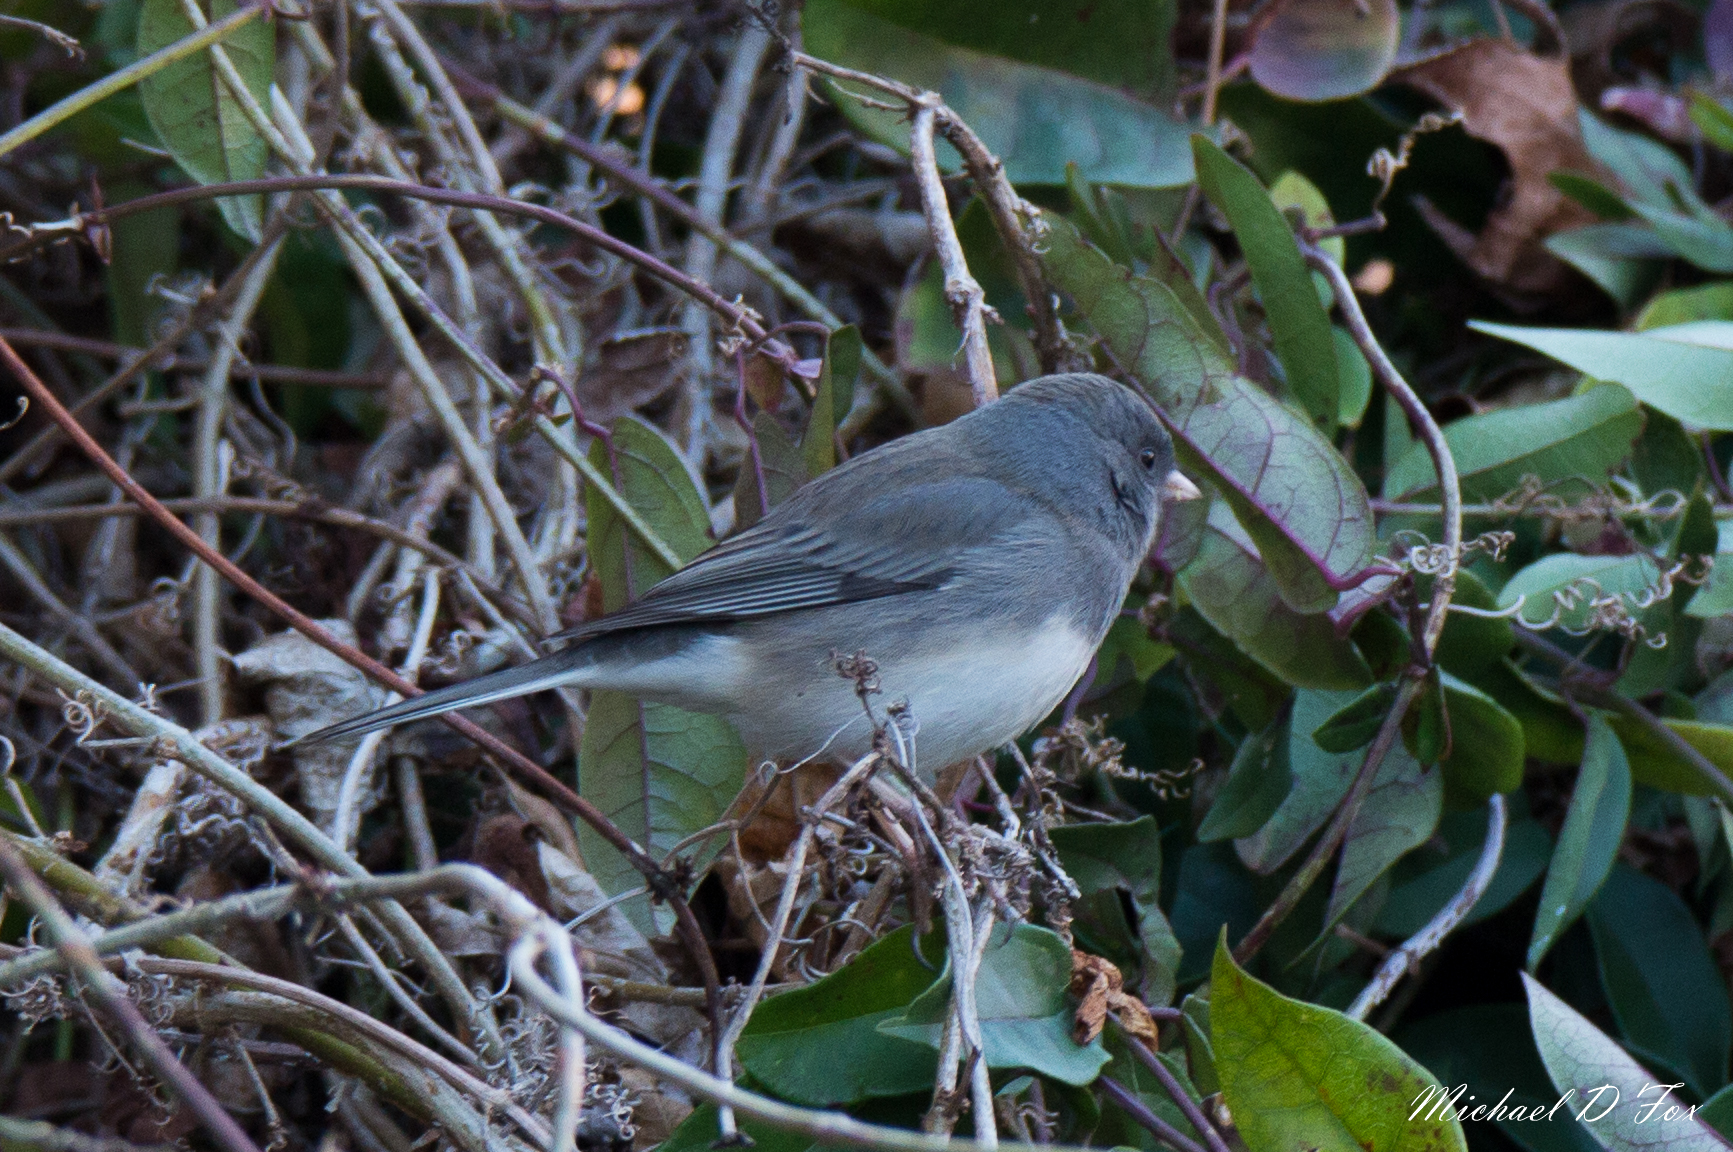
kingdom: Animalia
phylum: Chordata
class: Aves
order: Passeriformes
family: Passerellidae
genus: Junco
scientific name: Junco hyemalis
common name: Dark-eyed junco
